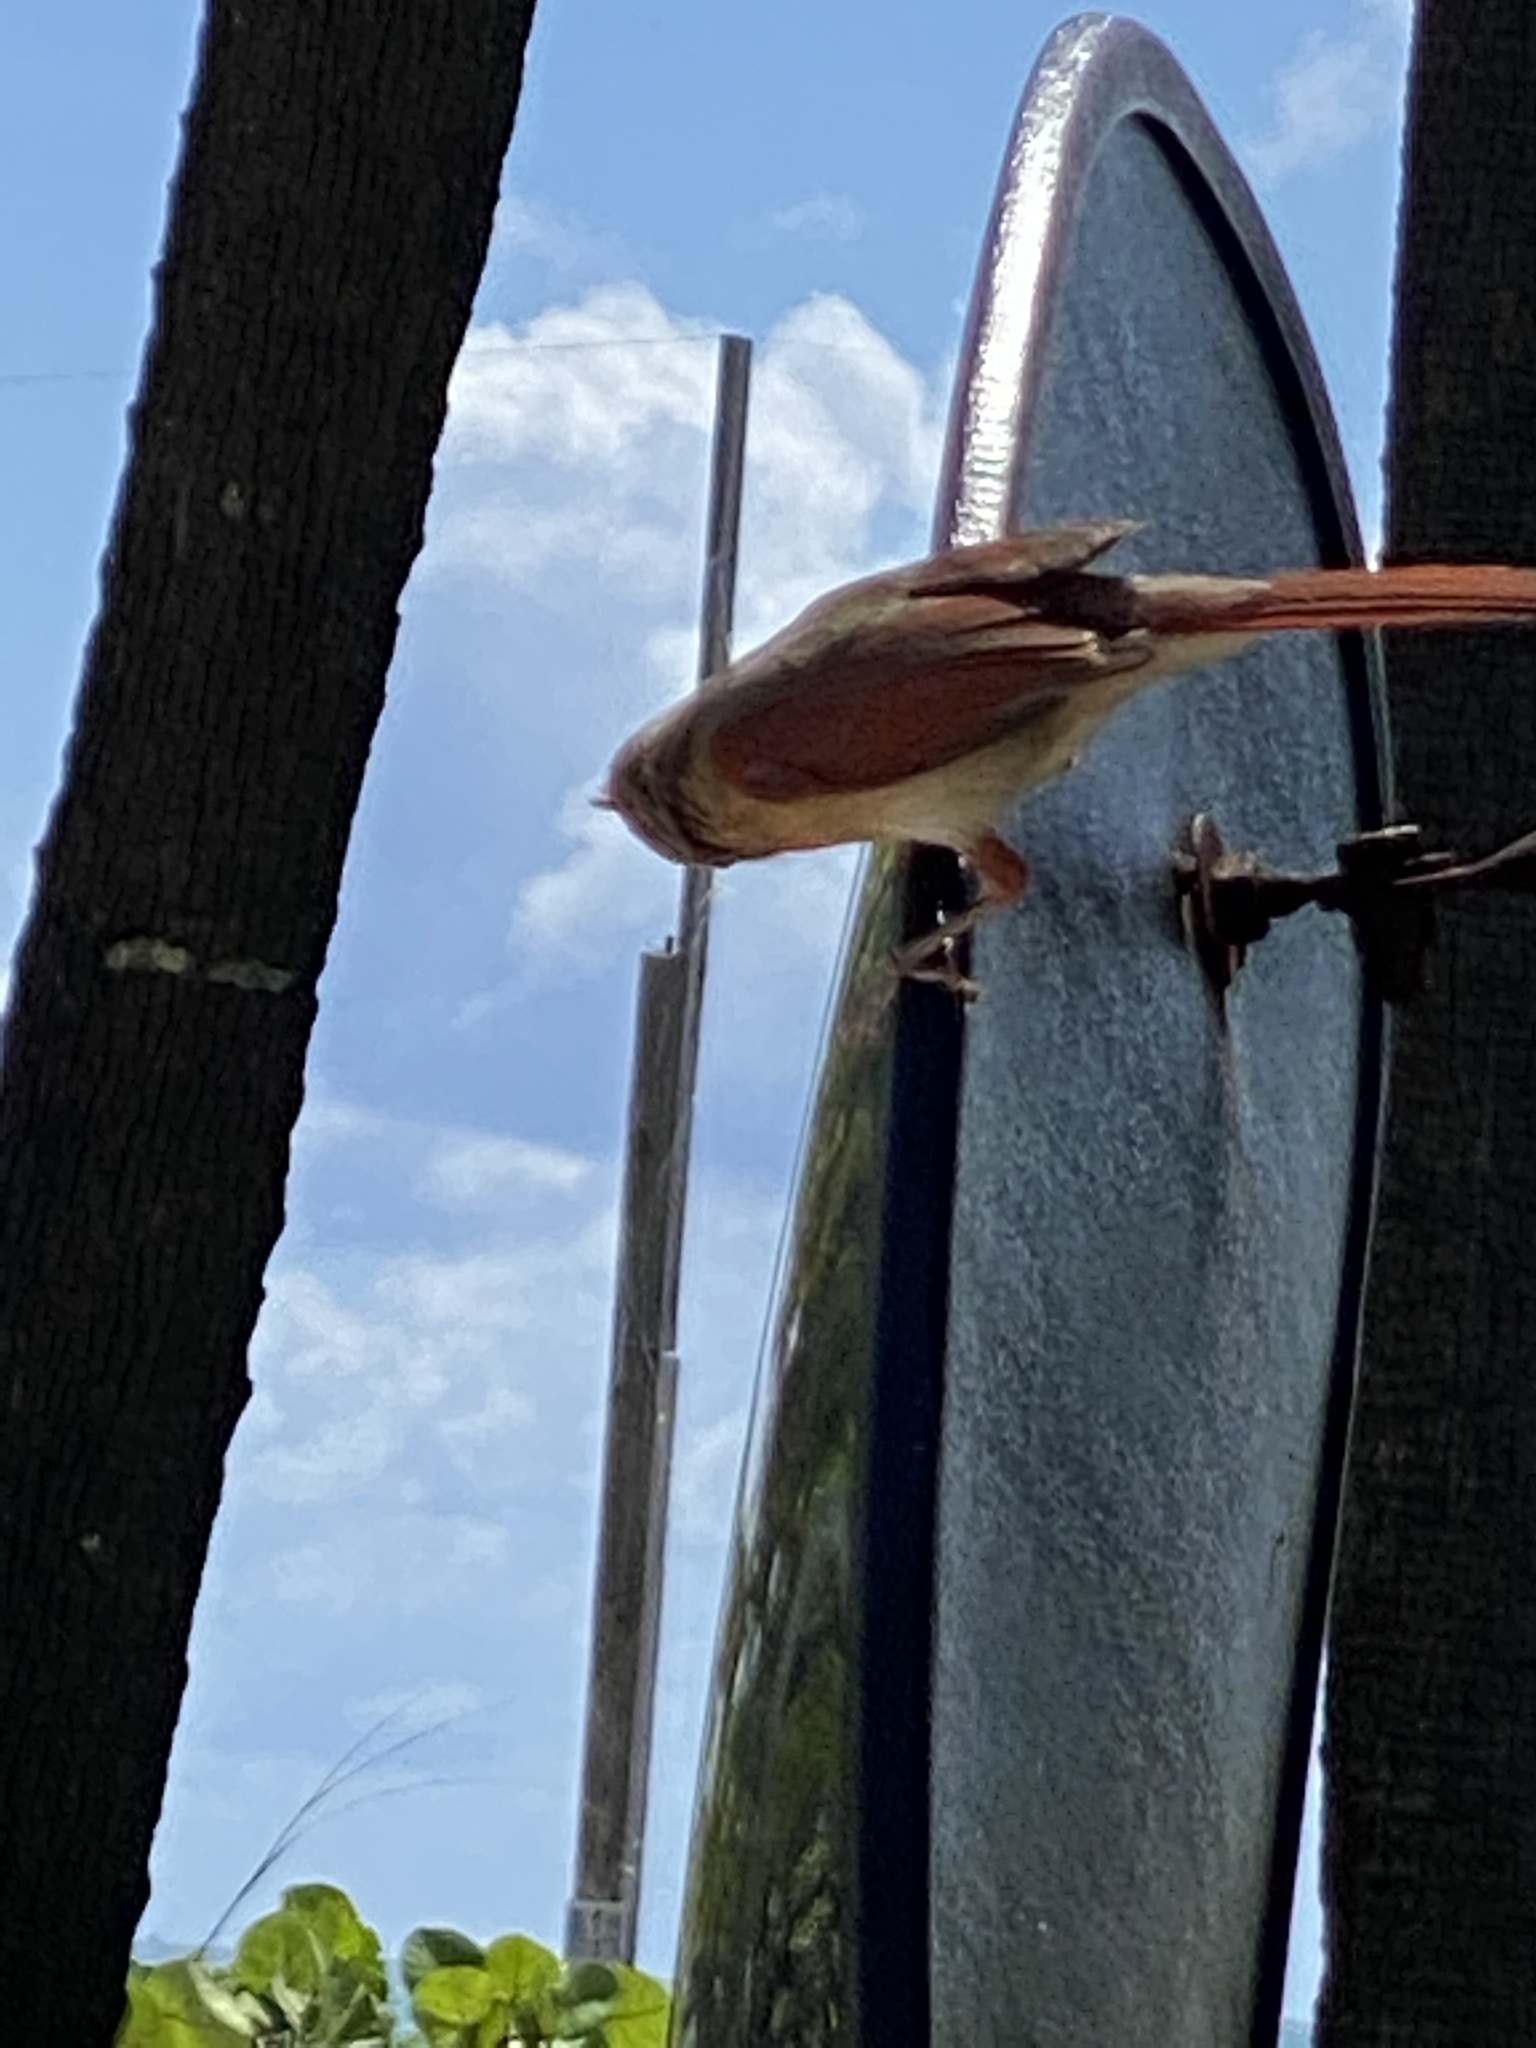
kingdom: Animalia
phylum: Chordata
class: Aves
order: Passeriformes
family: Cardinalidae
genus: Cardinalis
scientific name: Cardinalis cardinalis
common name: Northern cardinal
